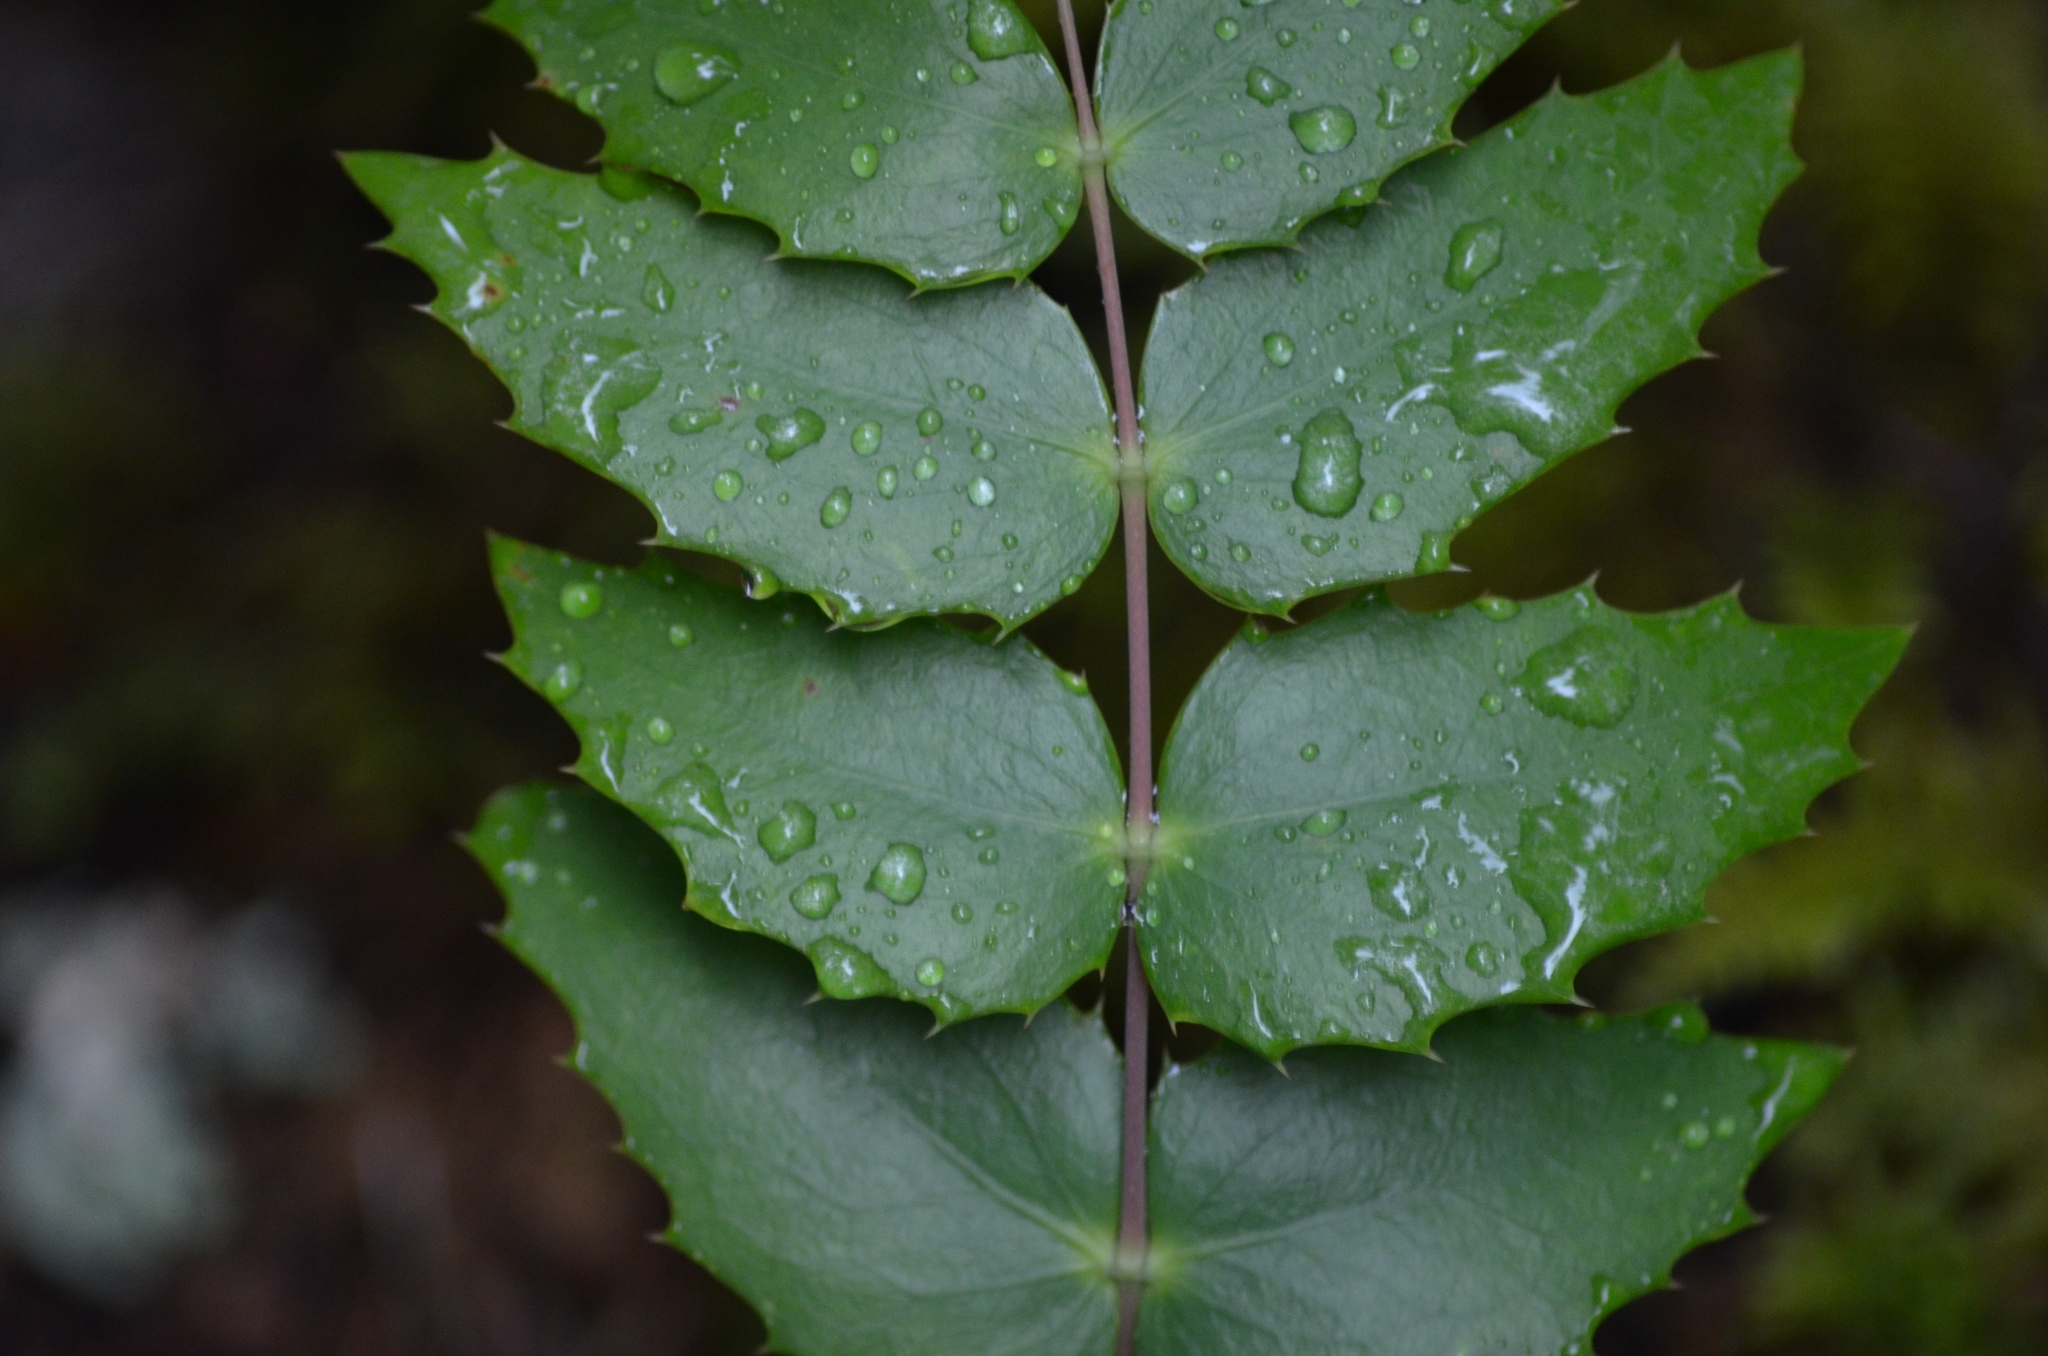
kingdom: Plantae
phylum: Tracheophyta
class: Magnoliopsida
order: Ranunculales
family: Berberidaceae
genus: Mahonia
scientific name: Mahonia nervosa
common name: Cascade oregon-grape
